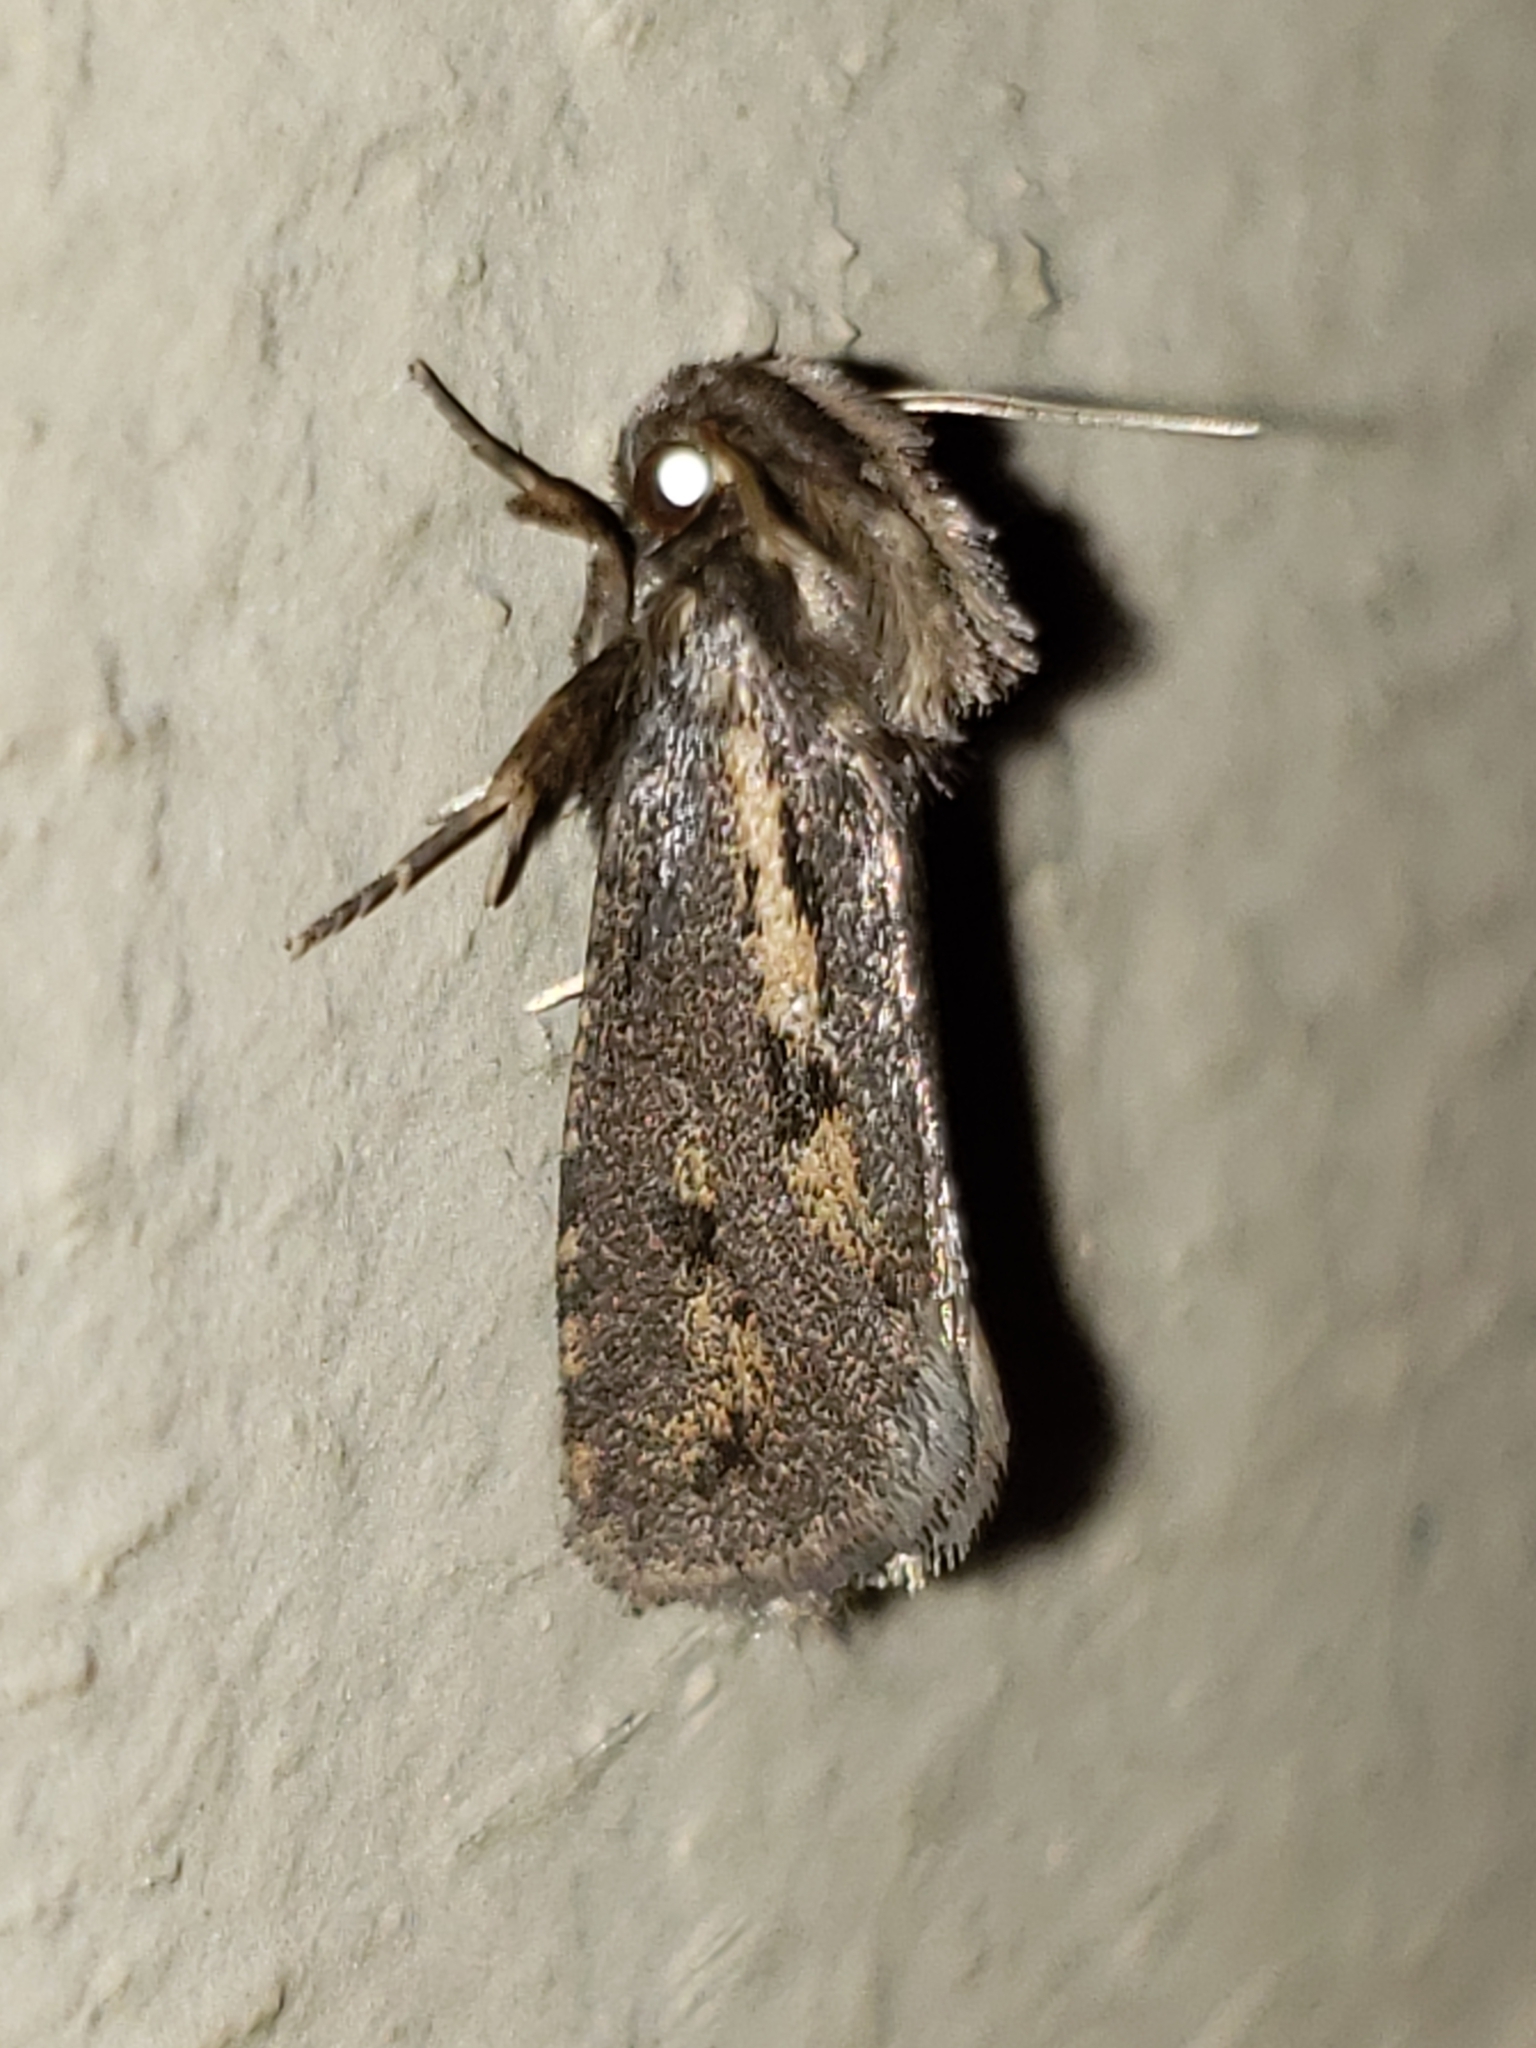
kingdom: Animalia
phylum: Arthropoda
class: Insecta
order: Lepidoptera
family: Tineidae
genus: Acrolophus
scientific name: Acrolophus popeanella
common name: Clemens' grass tubeworm moth
